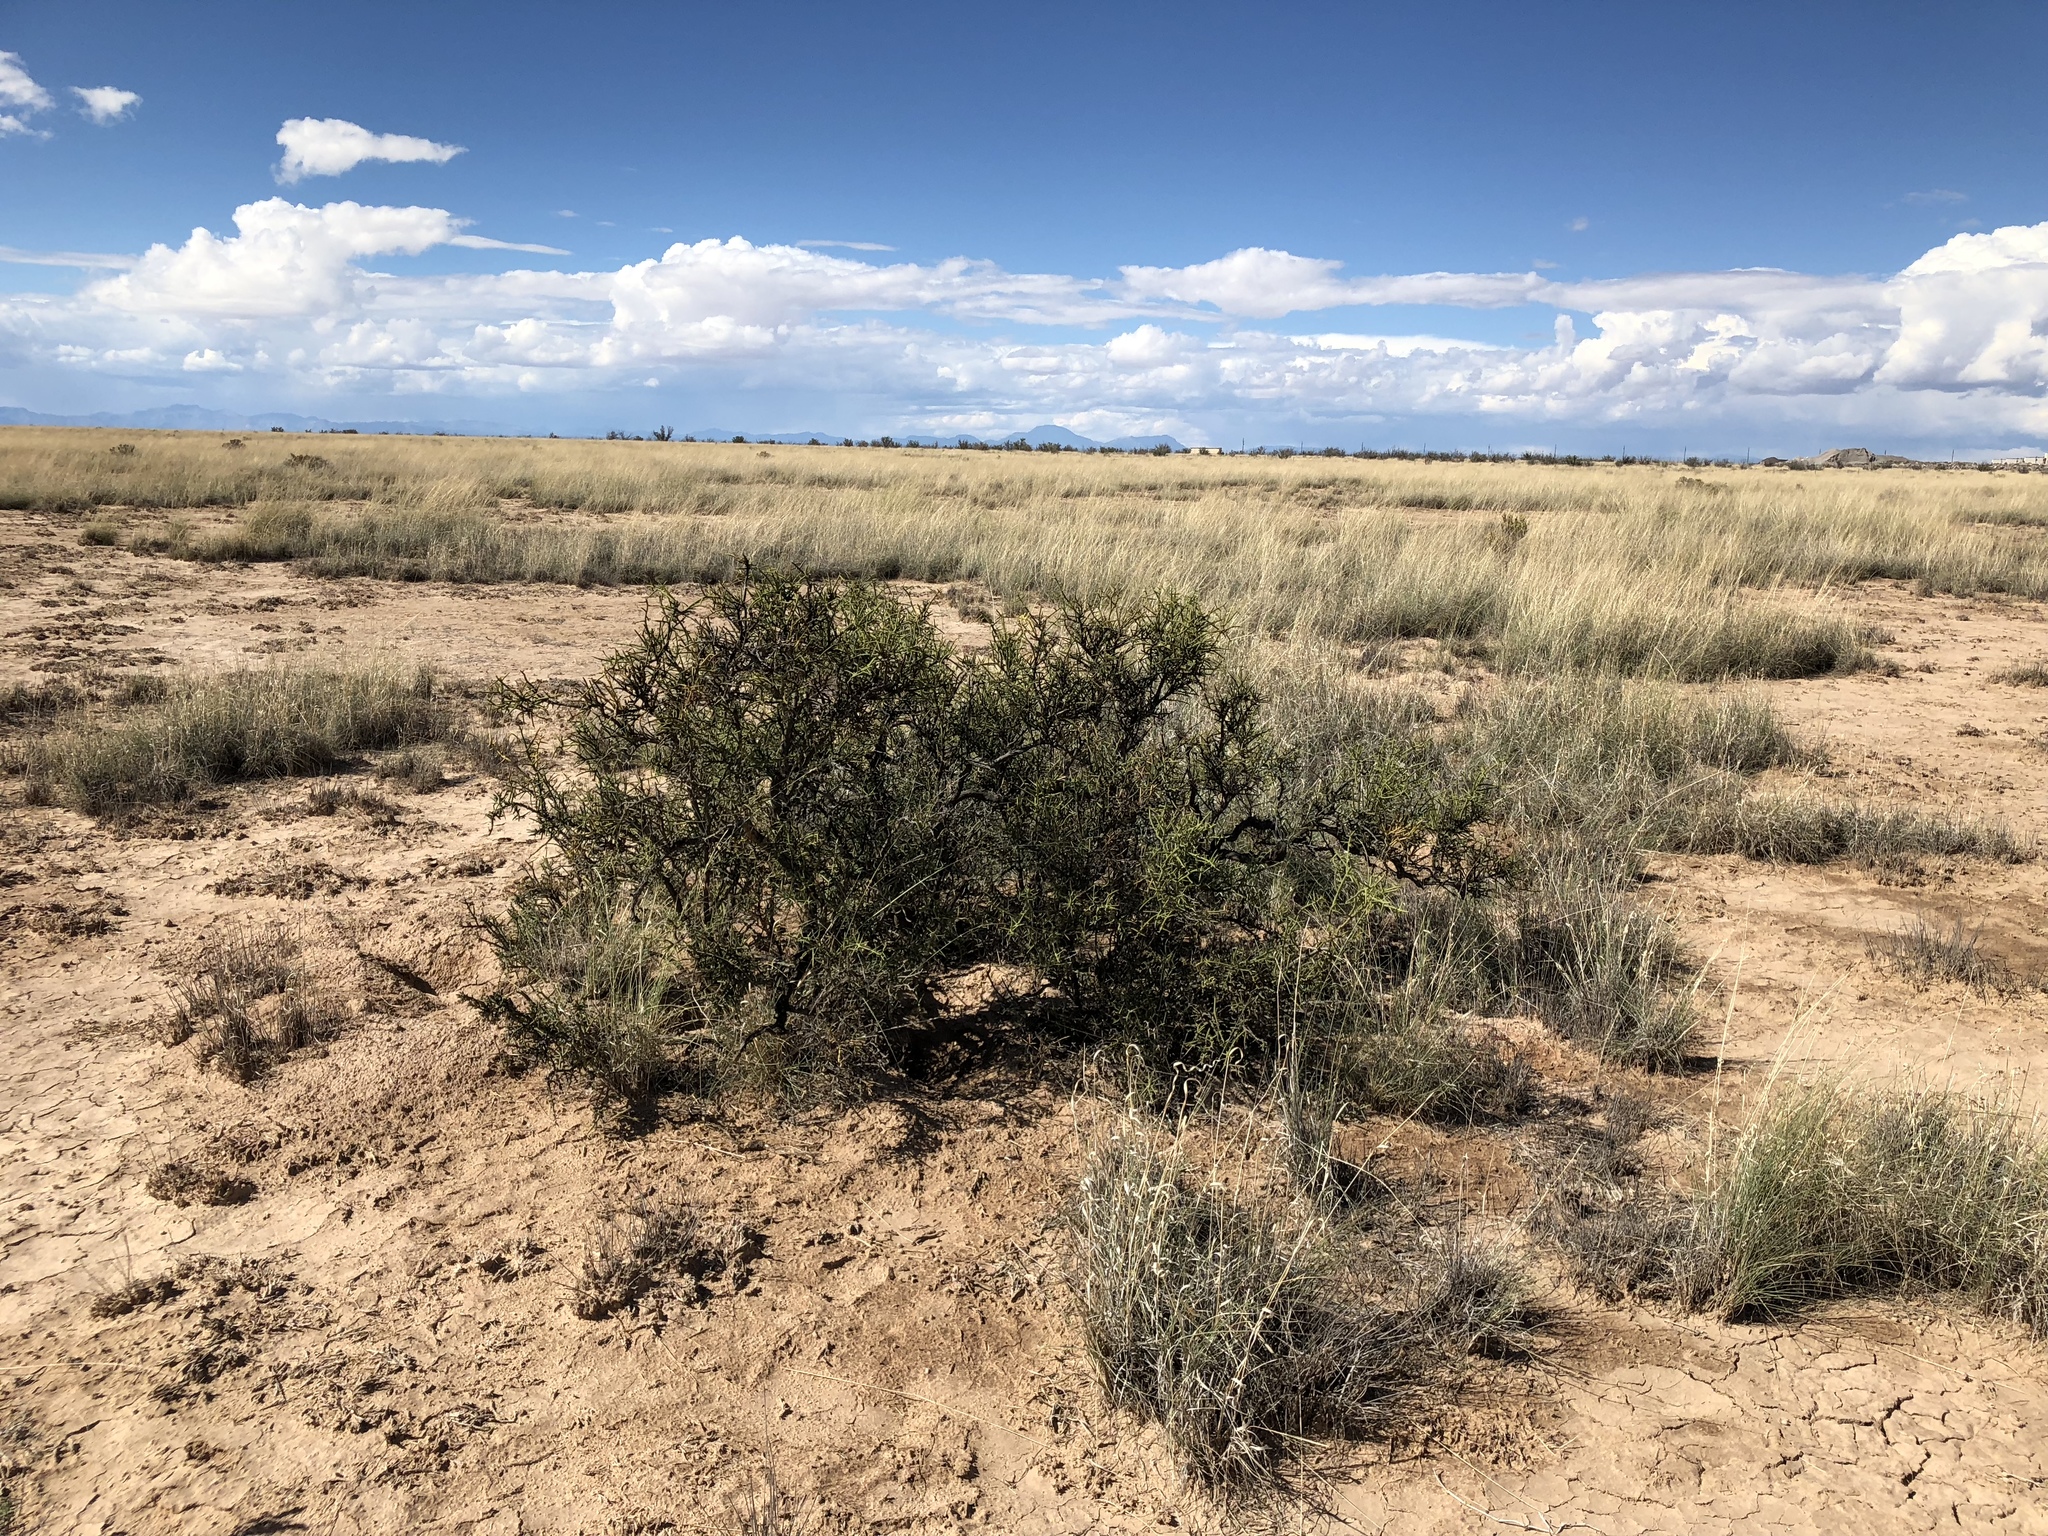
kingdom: Plantae
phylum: Tracheophyta
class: Magnoliopsida
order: Brassicales
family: Koeberliniaceae
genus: Koeberlinia
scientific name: Koeberlinia spinosa
